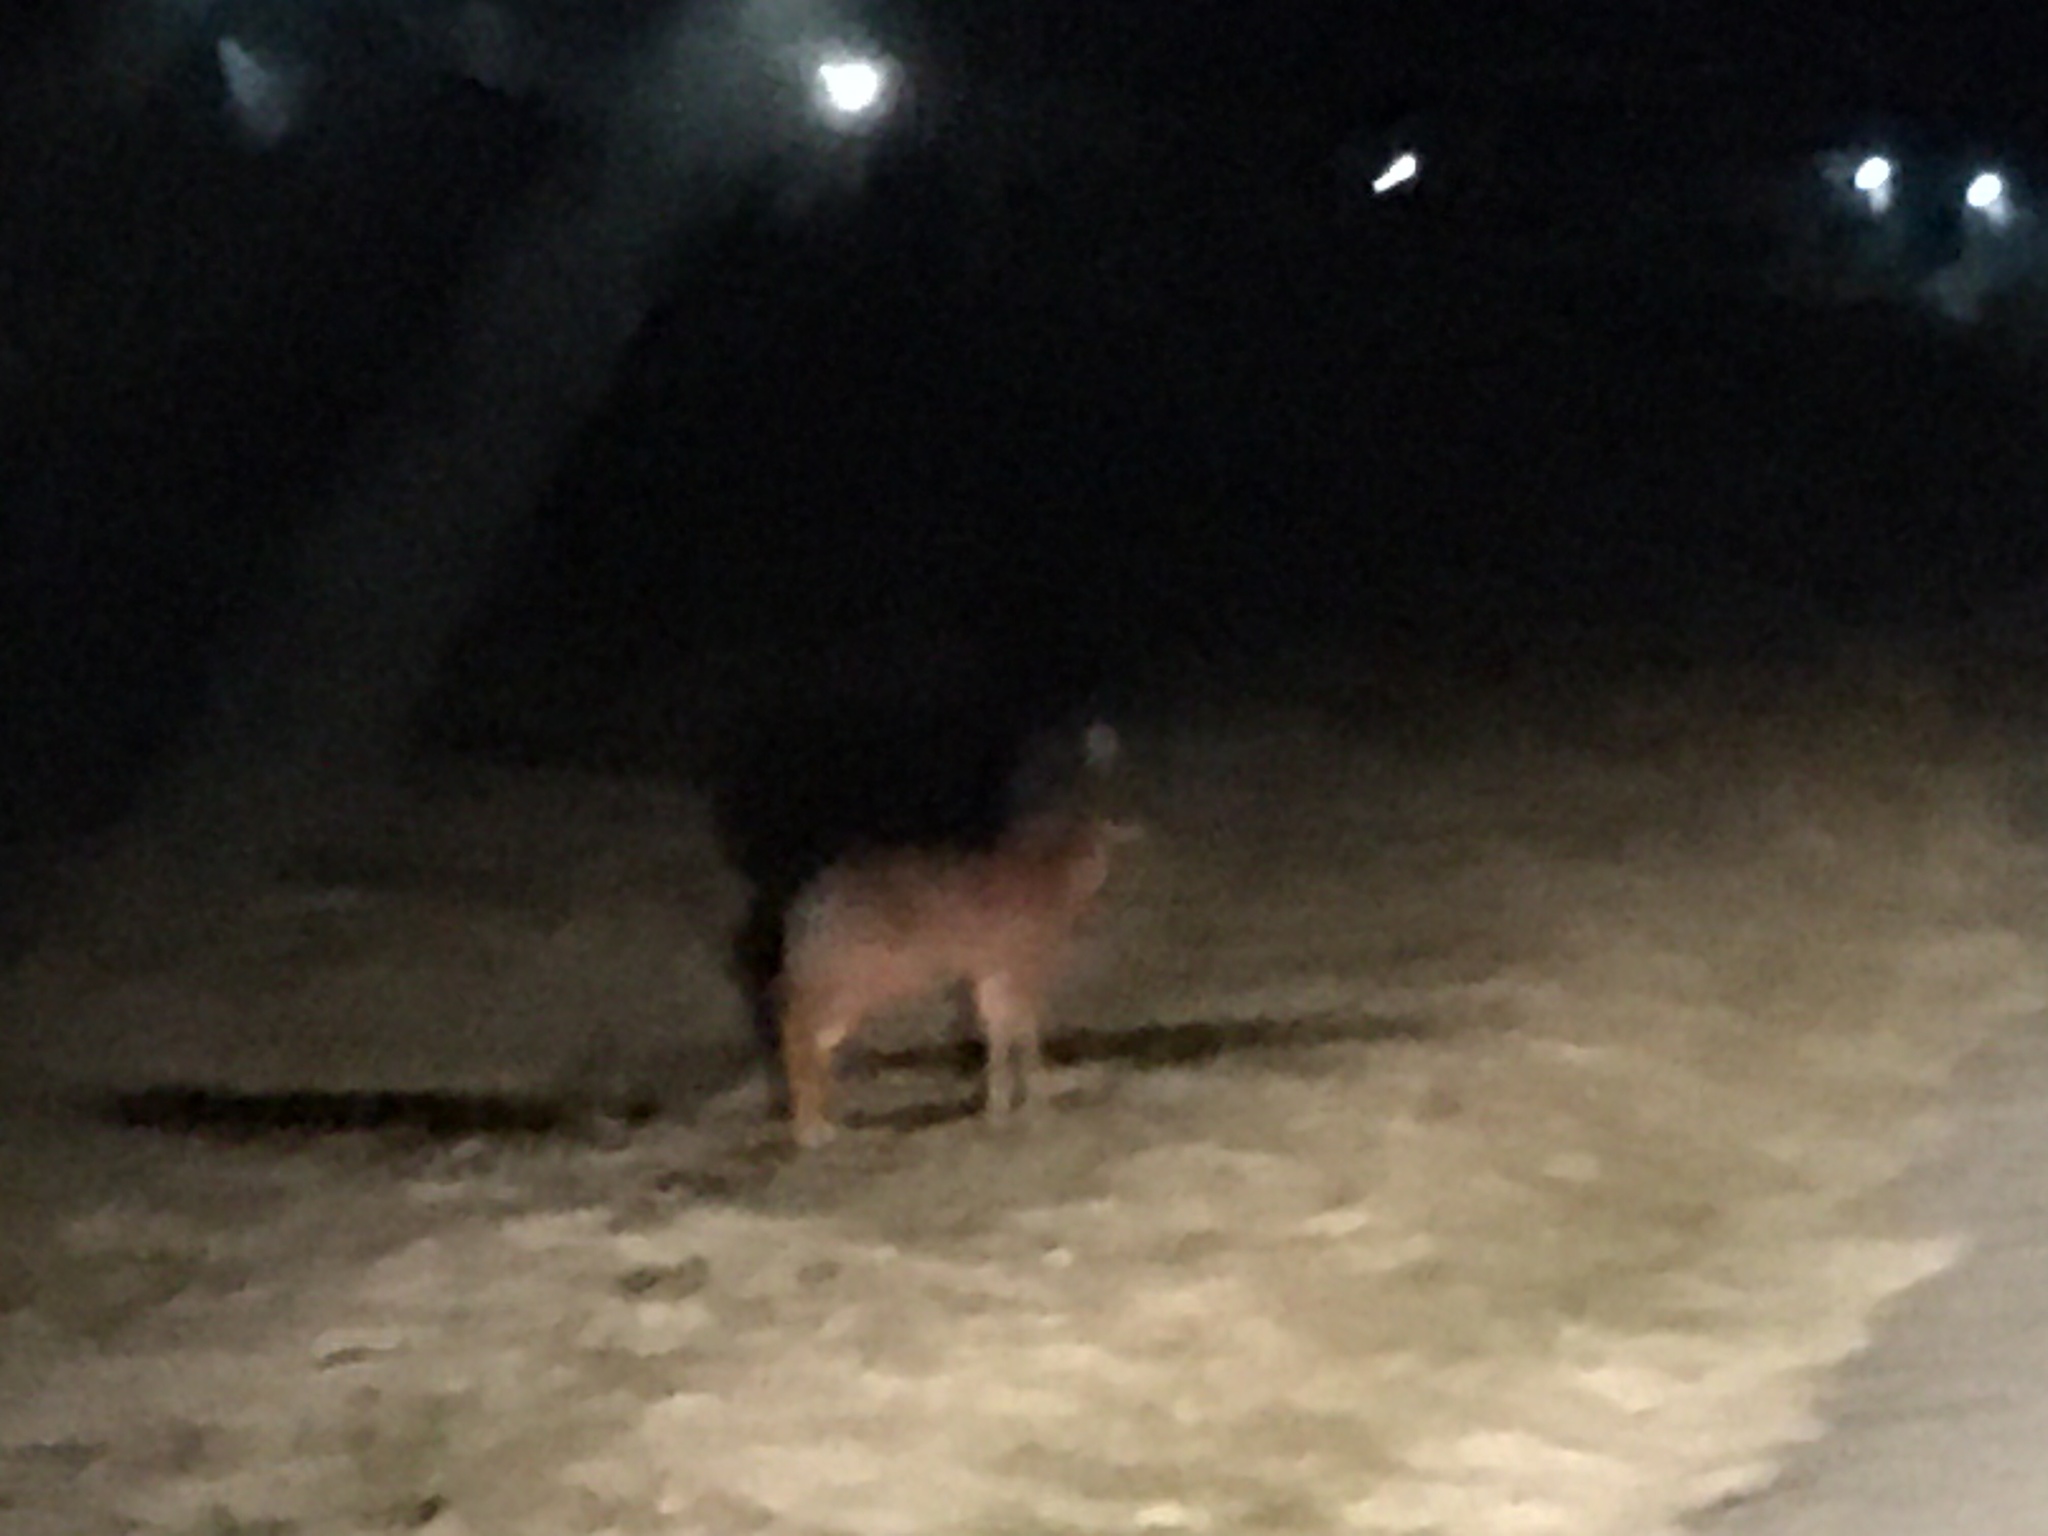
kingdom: Animalia
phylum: Chordata
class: Mammalia
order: Artiodactyla
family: Bovidae
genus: Raphicerus
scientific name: Raphicerus melanotis
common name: Cape grysbok
